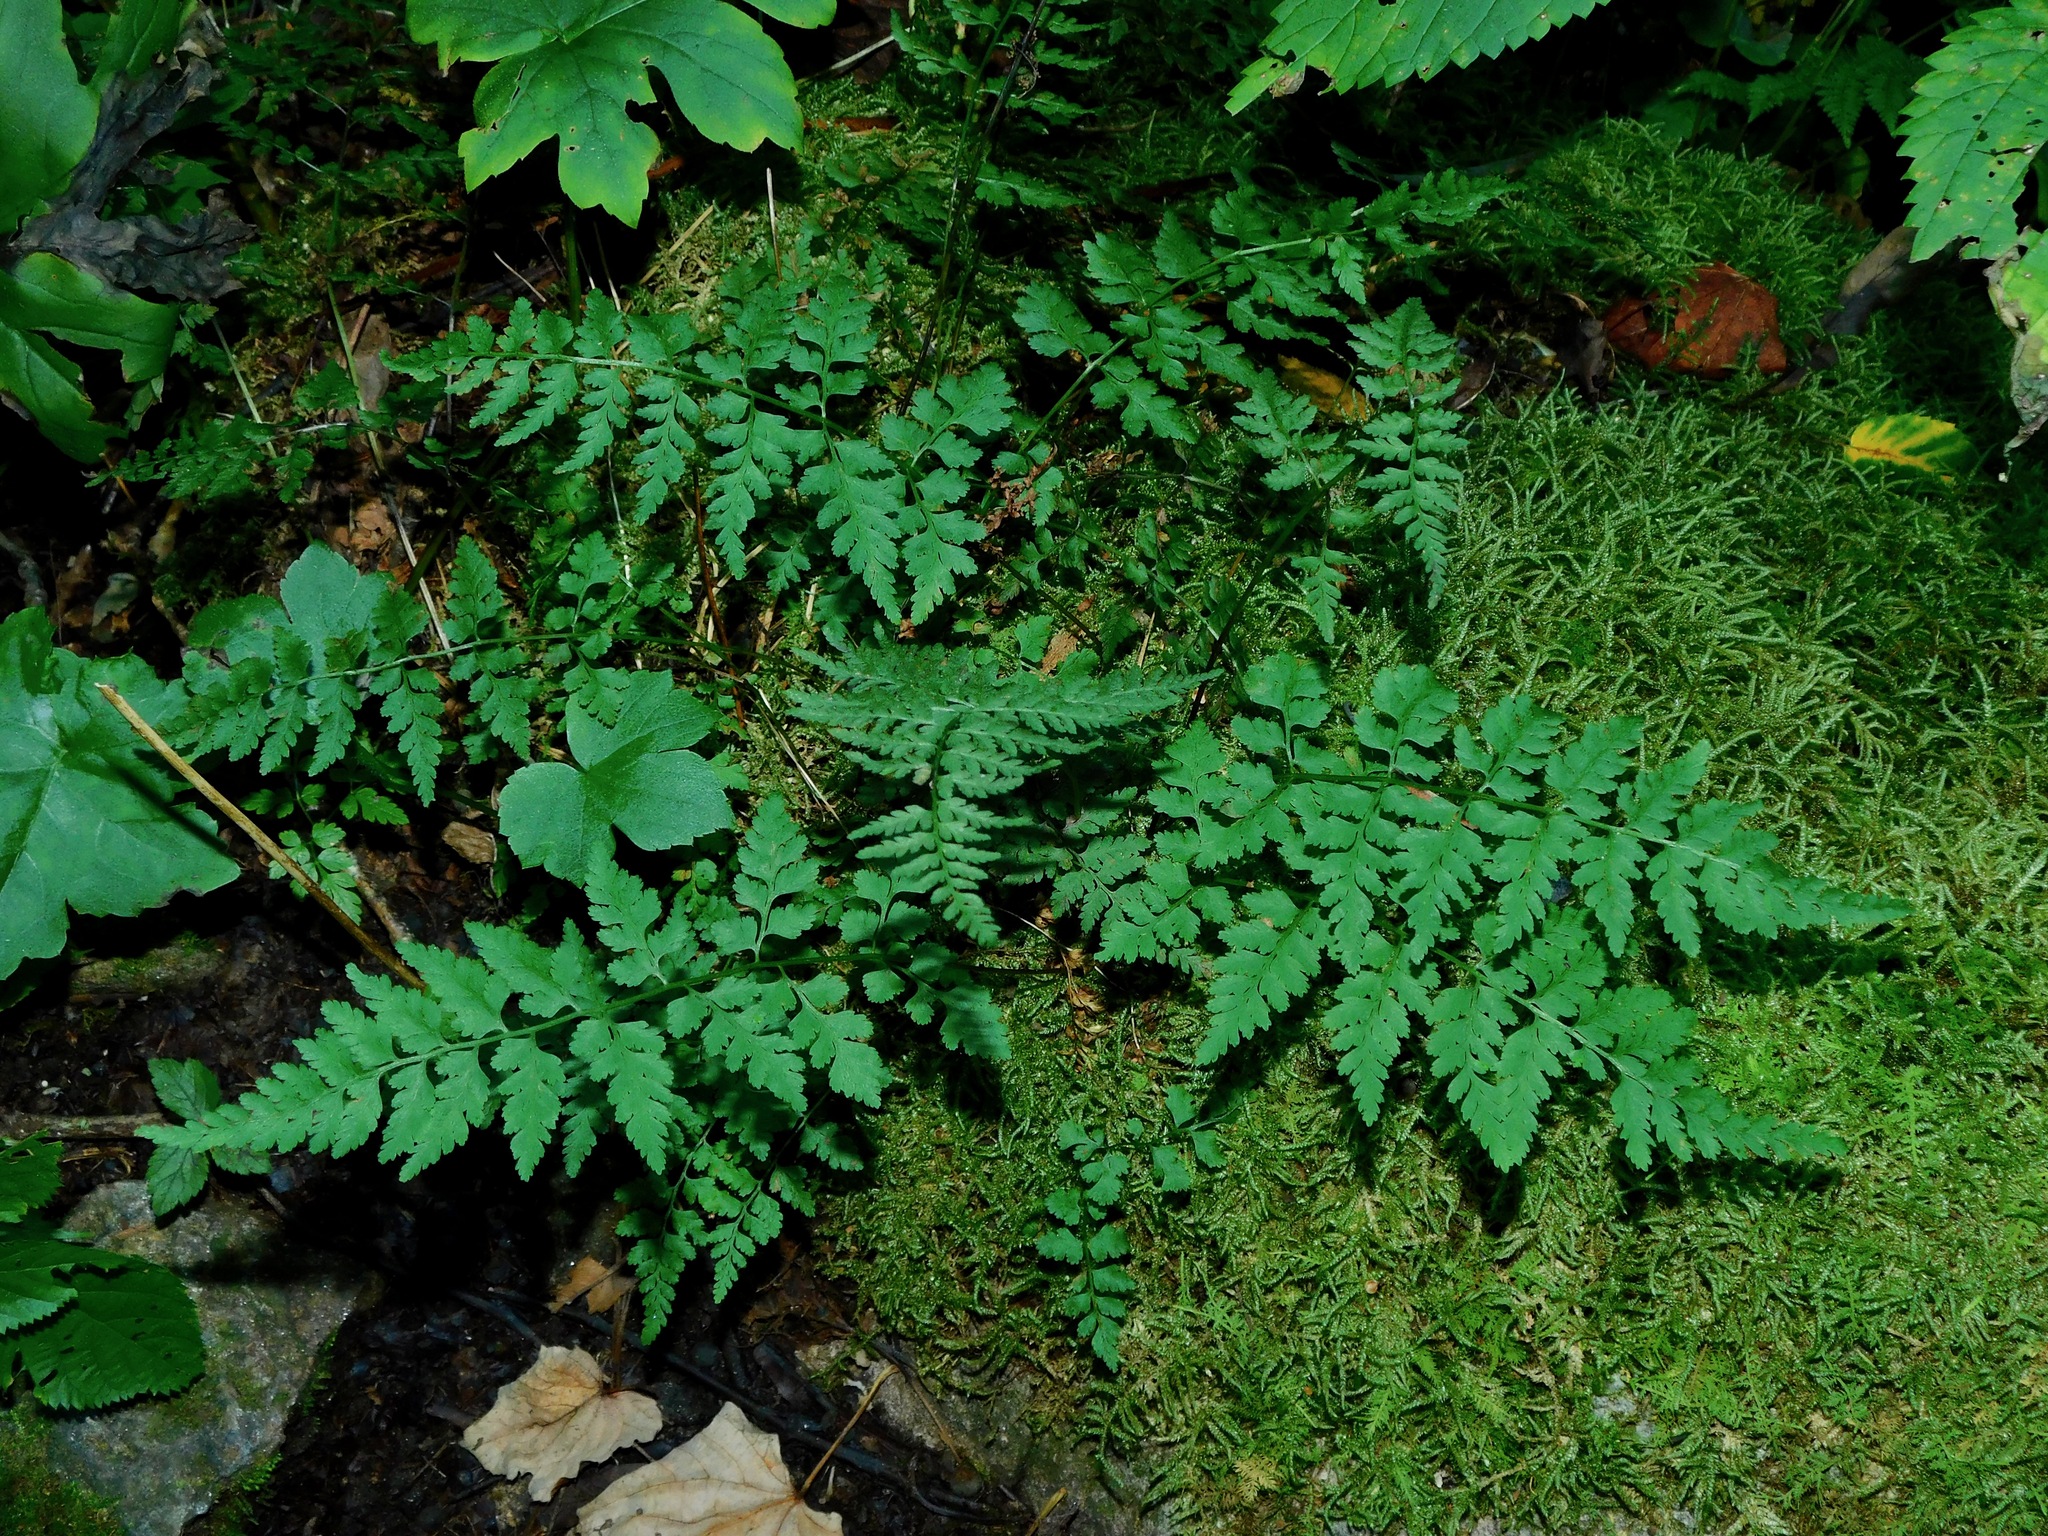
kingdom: Plantae
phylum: Tracheophyta
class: Polypodiopsida
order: Polypodiales
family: Cystopteridaceae
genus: Cystopteris
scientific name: Cystopteris protrusa
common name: Lowland brittle fern
